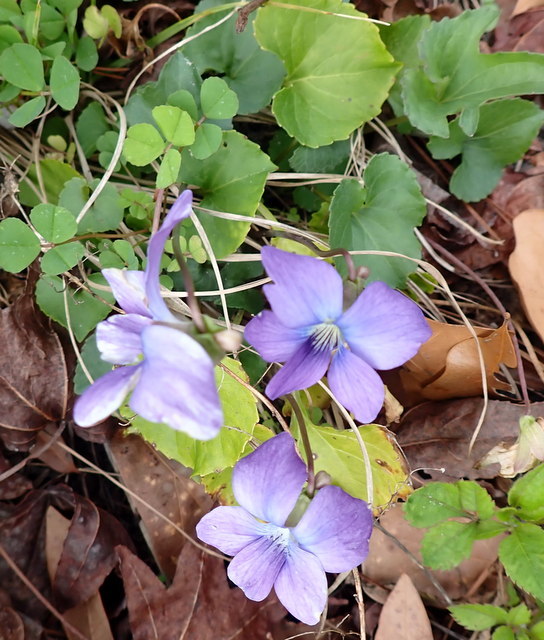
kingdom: Plantae
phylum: Tracheophyta
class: Magnoliopsida
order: Malpighiales
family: Violaceae
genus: Viola
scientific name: Viola sororia
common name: Dooryard violet
